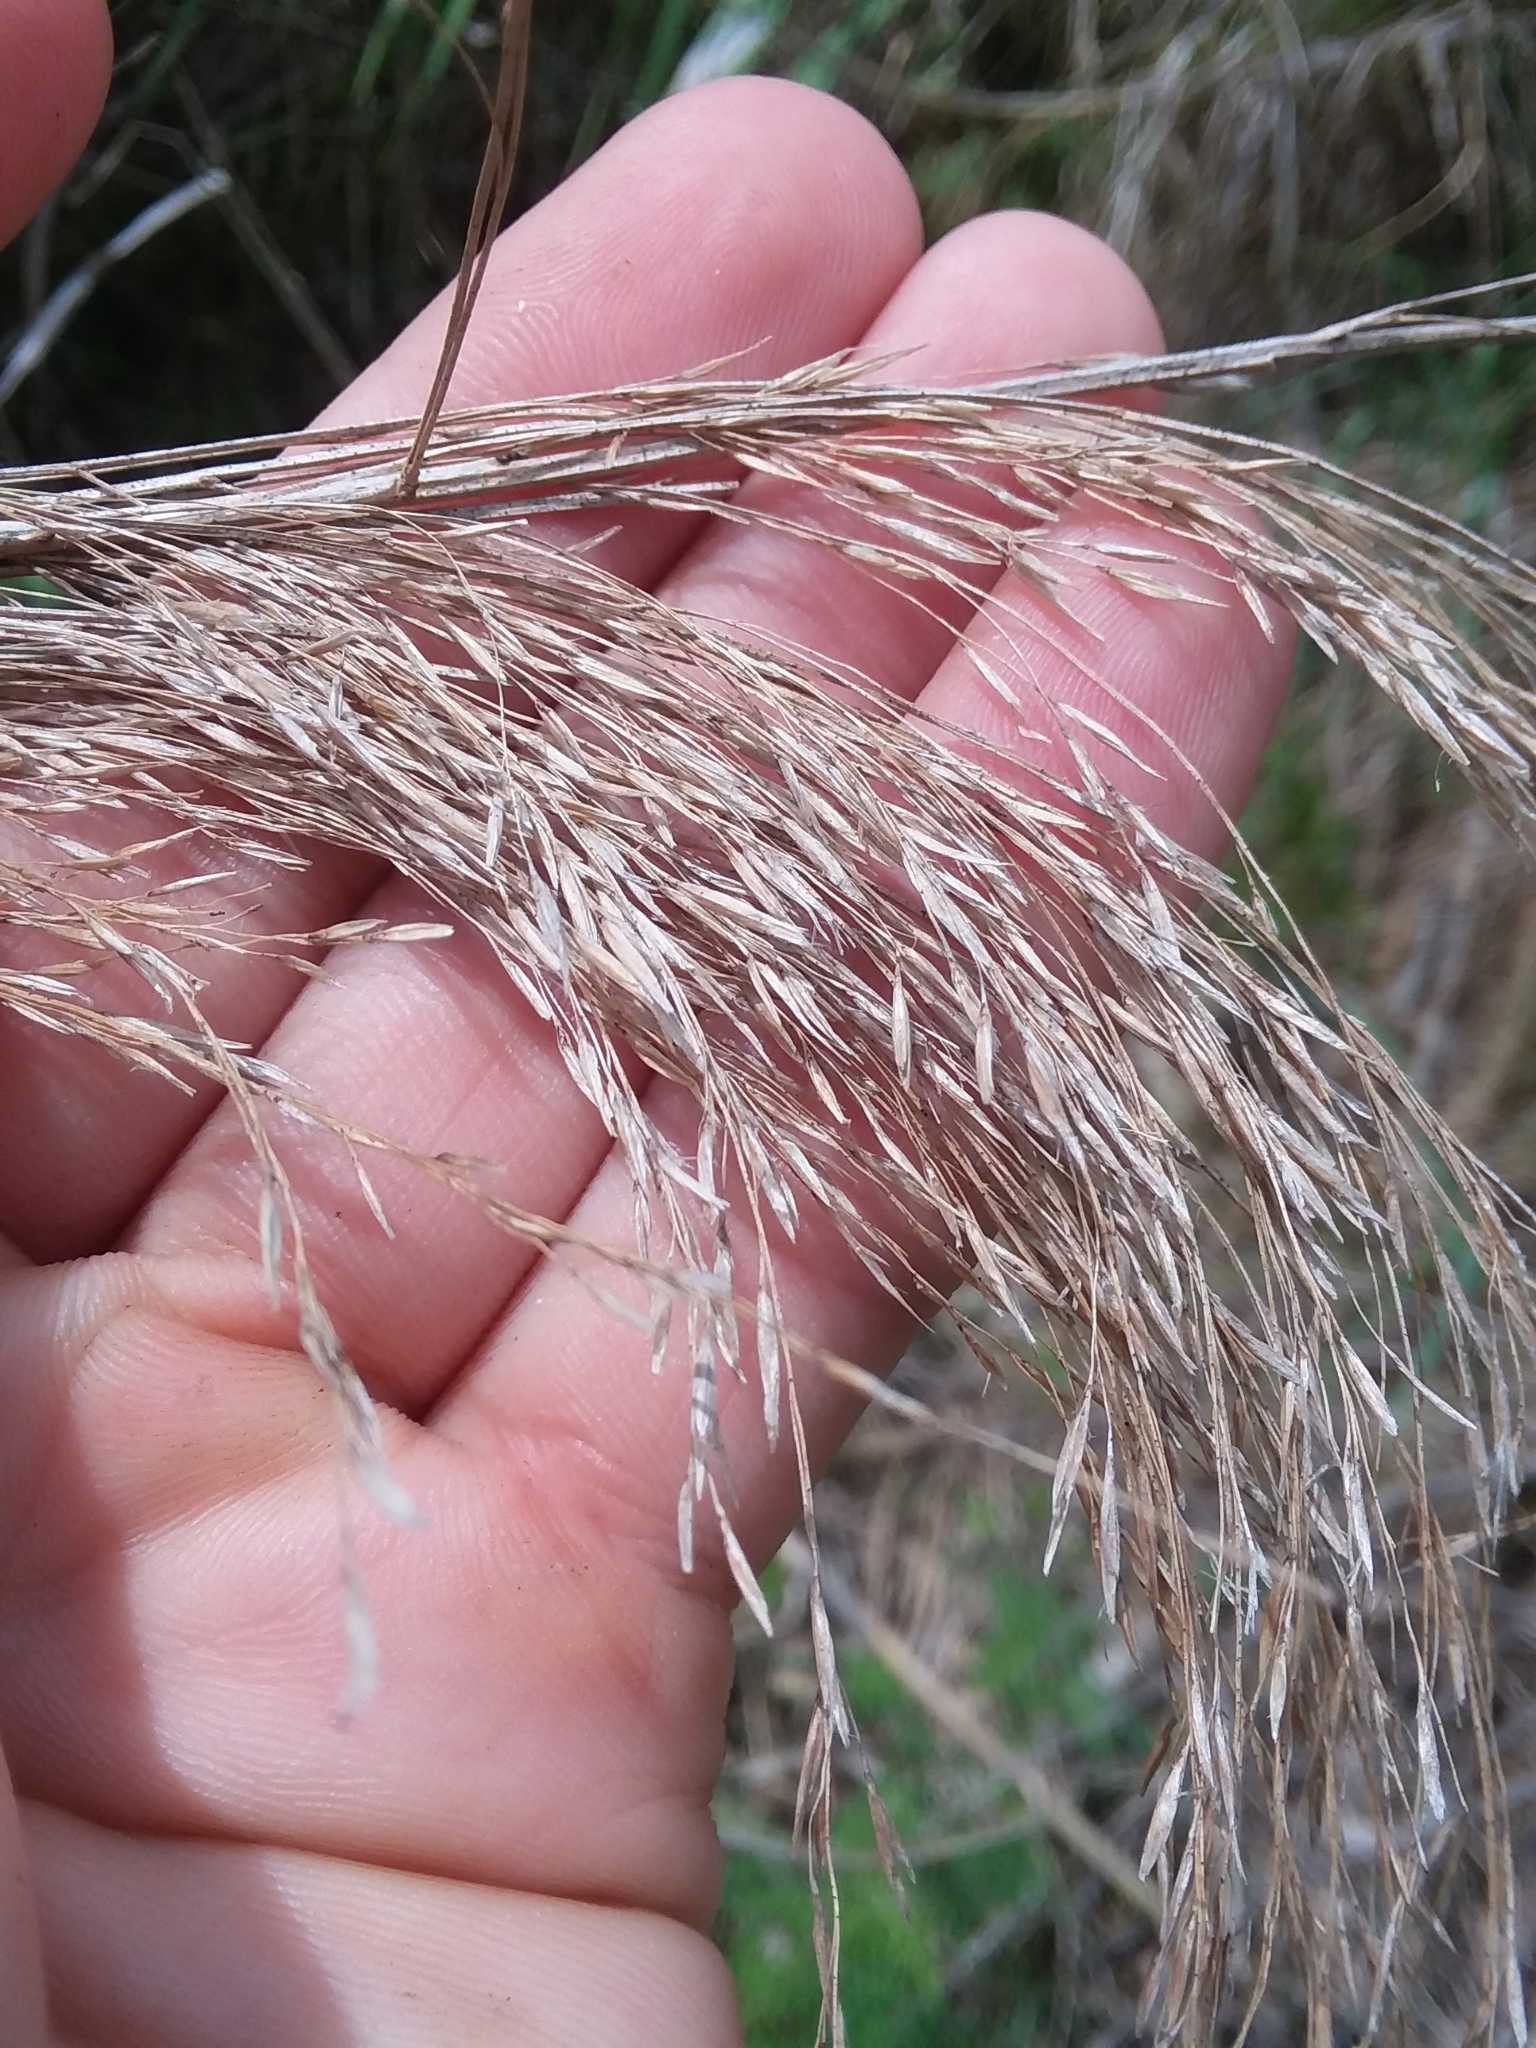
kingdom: Plantae
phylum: Tracheophyta
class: Liliopsida
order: Poales
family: Poaceae
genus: Phragmites
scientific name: Phragmites australis
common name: Common reed
